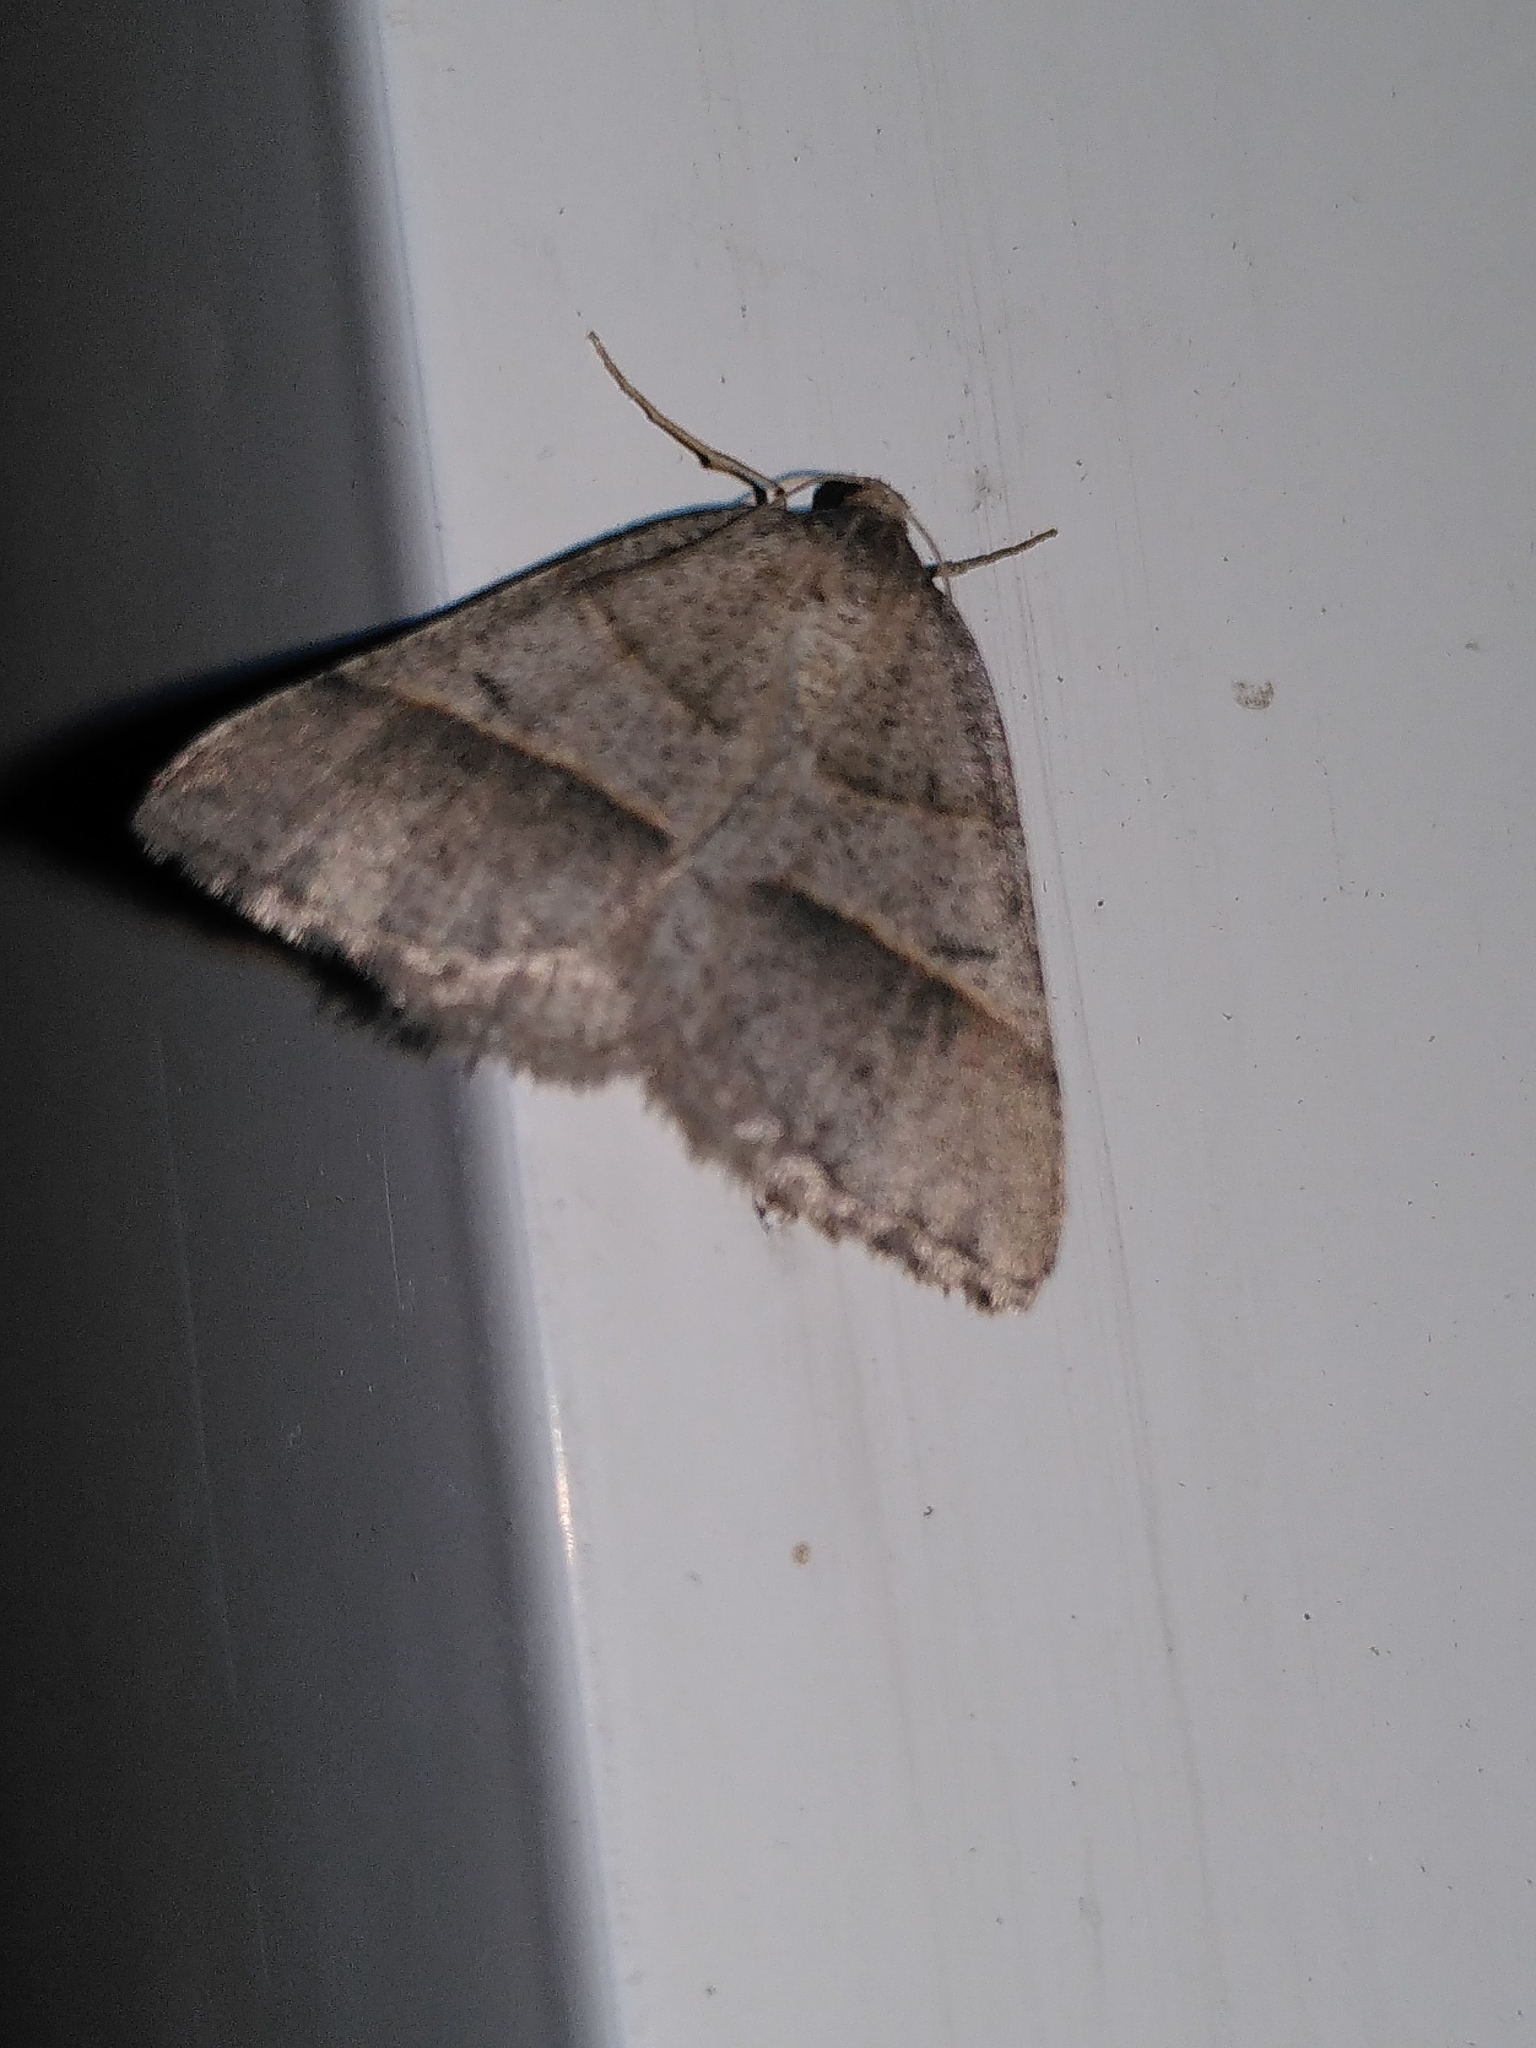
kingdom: Animalia
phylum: Arthropoda
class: Insecta
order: Lepidoptera
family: Pterophoridae
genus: Pterophorus
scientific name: Pterophorus Petrophora convergata
